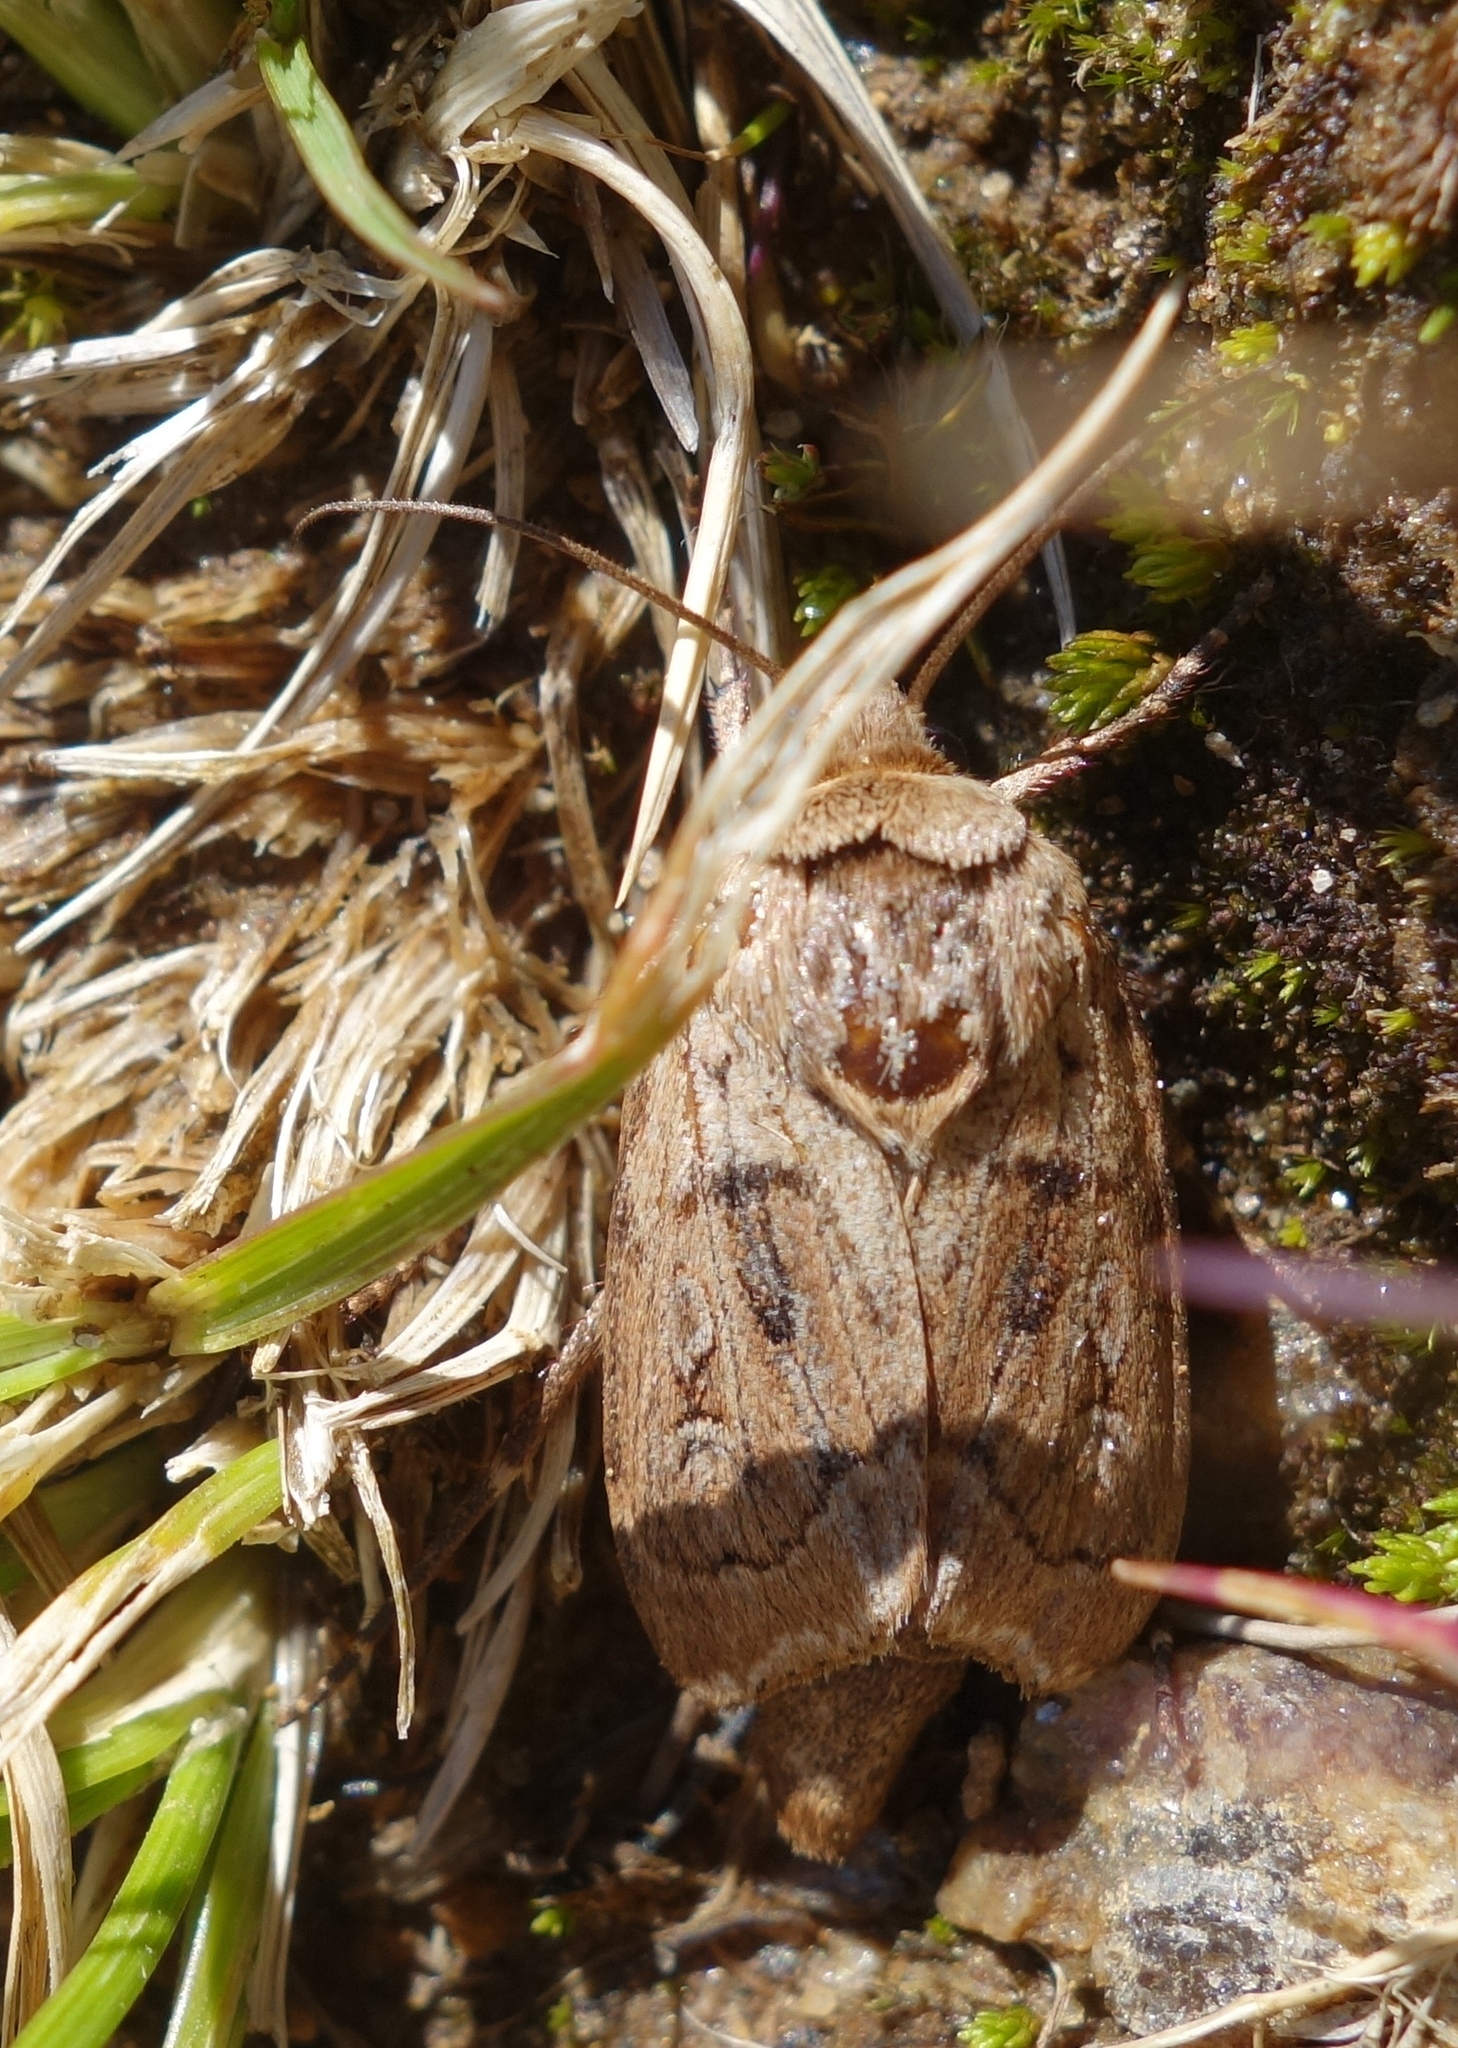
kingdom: Animalia
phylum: Arthropoda
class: Insecta
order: Lepidoptera
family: Noctuidae
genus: Agrotis
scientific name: Agrotis fatidica
